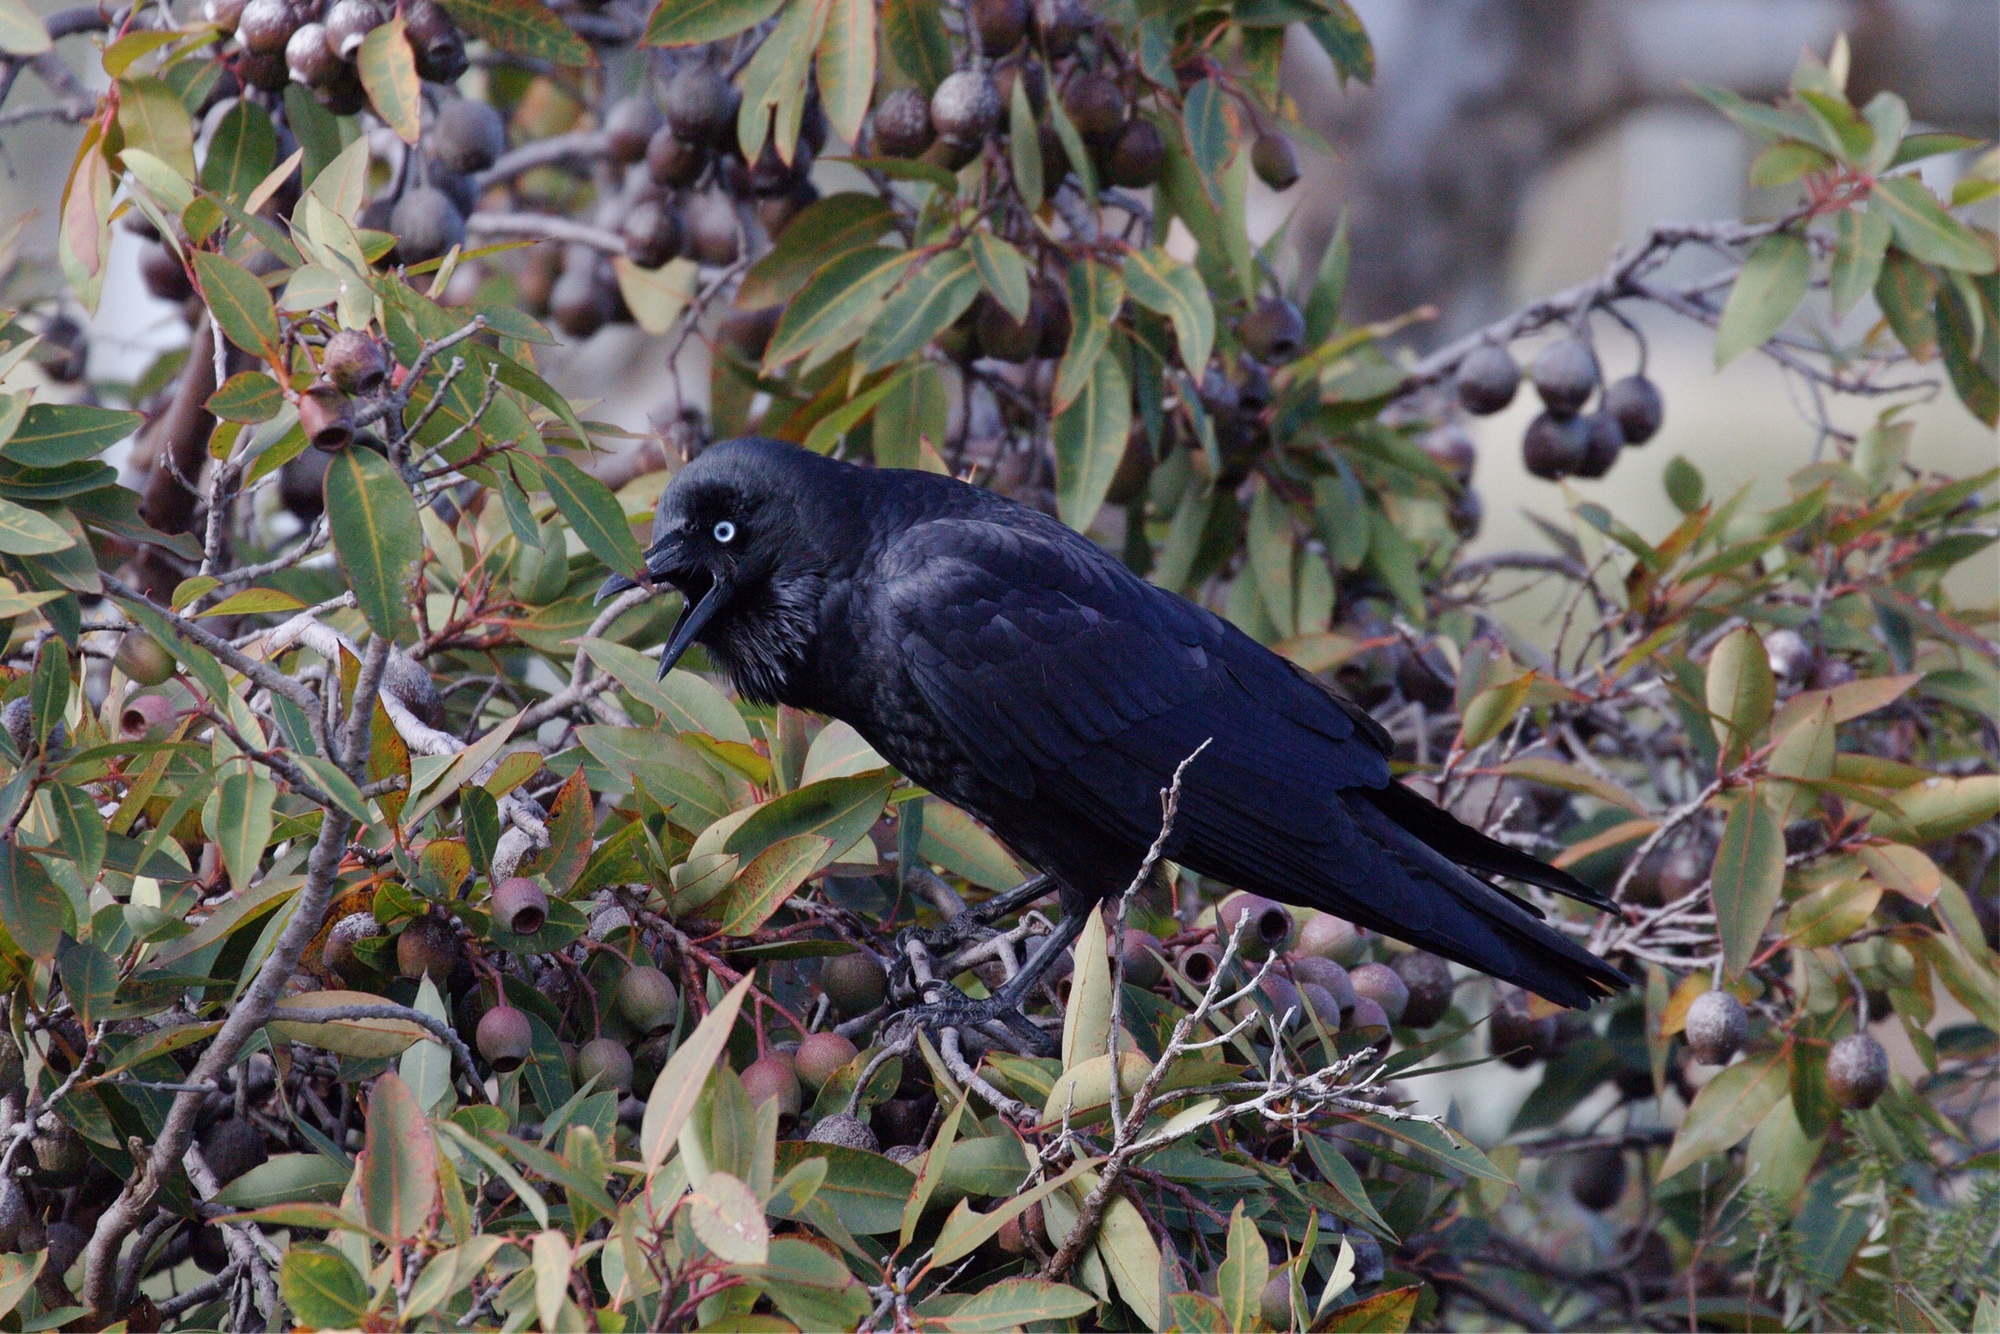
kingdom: Animalia
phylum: Chordata
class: Aves
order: Passeriformes
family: Corvidae
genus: Corvus
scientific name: Corvus mellori
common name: Little raven
